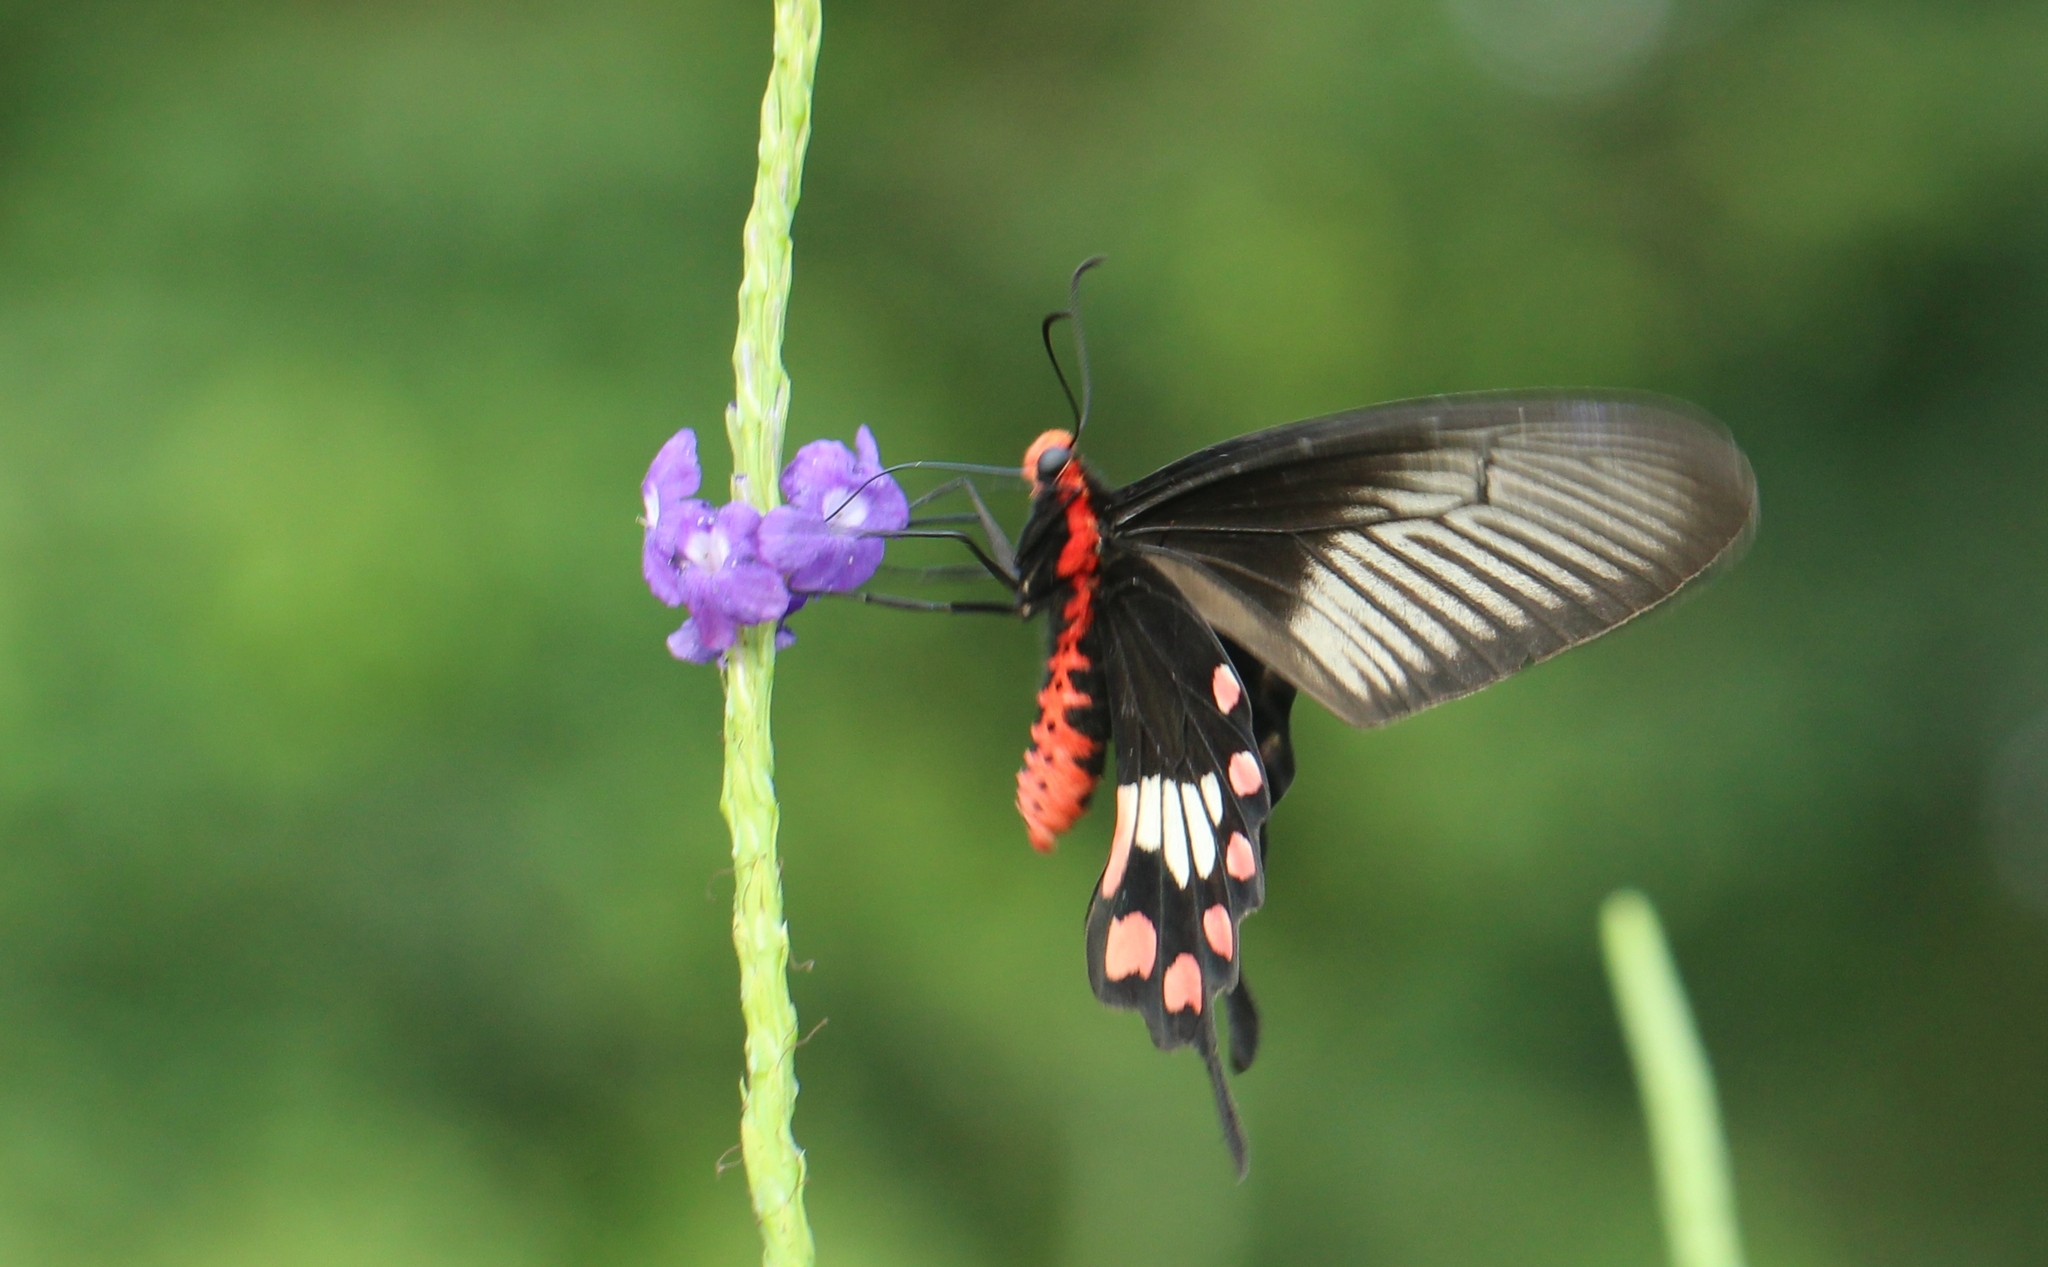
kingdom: Animalia
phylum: Arthropoda
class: Insecta
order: Lepidoptera
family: Papilionidae
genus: Pachliopta
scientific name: Pachliopta aristolochiae
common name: Common rose
